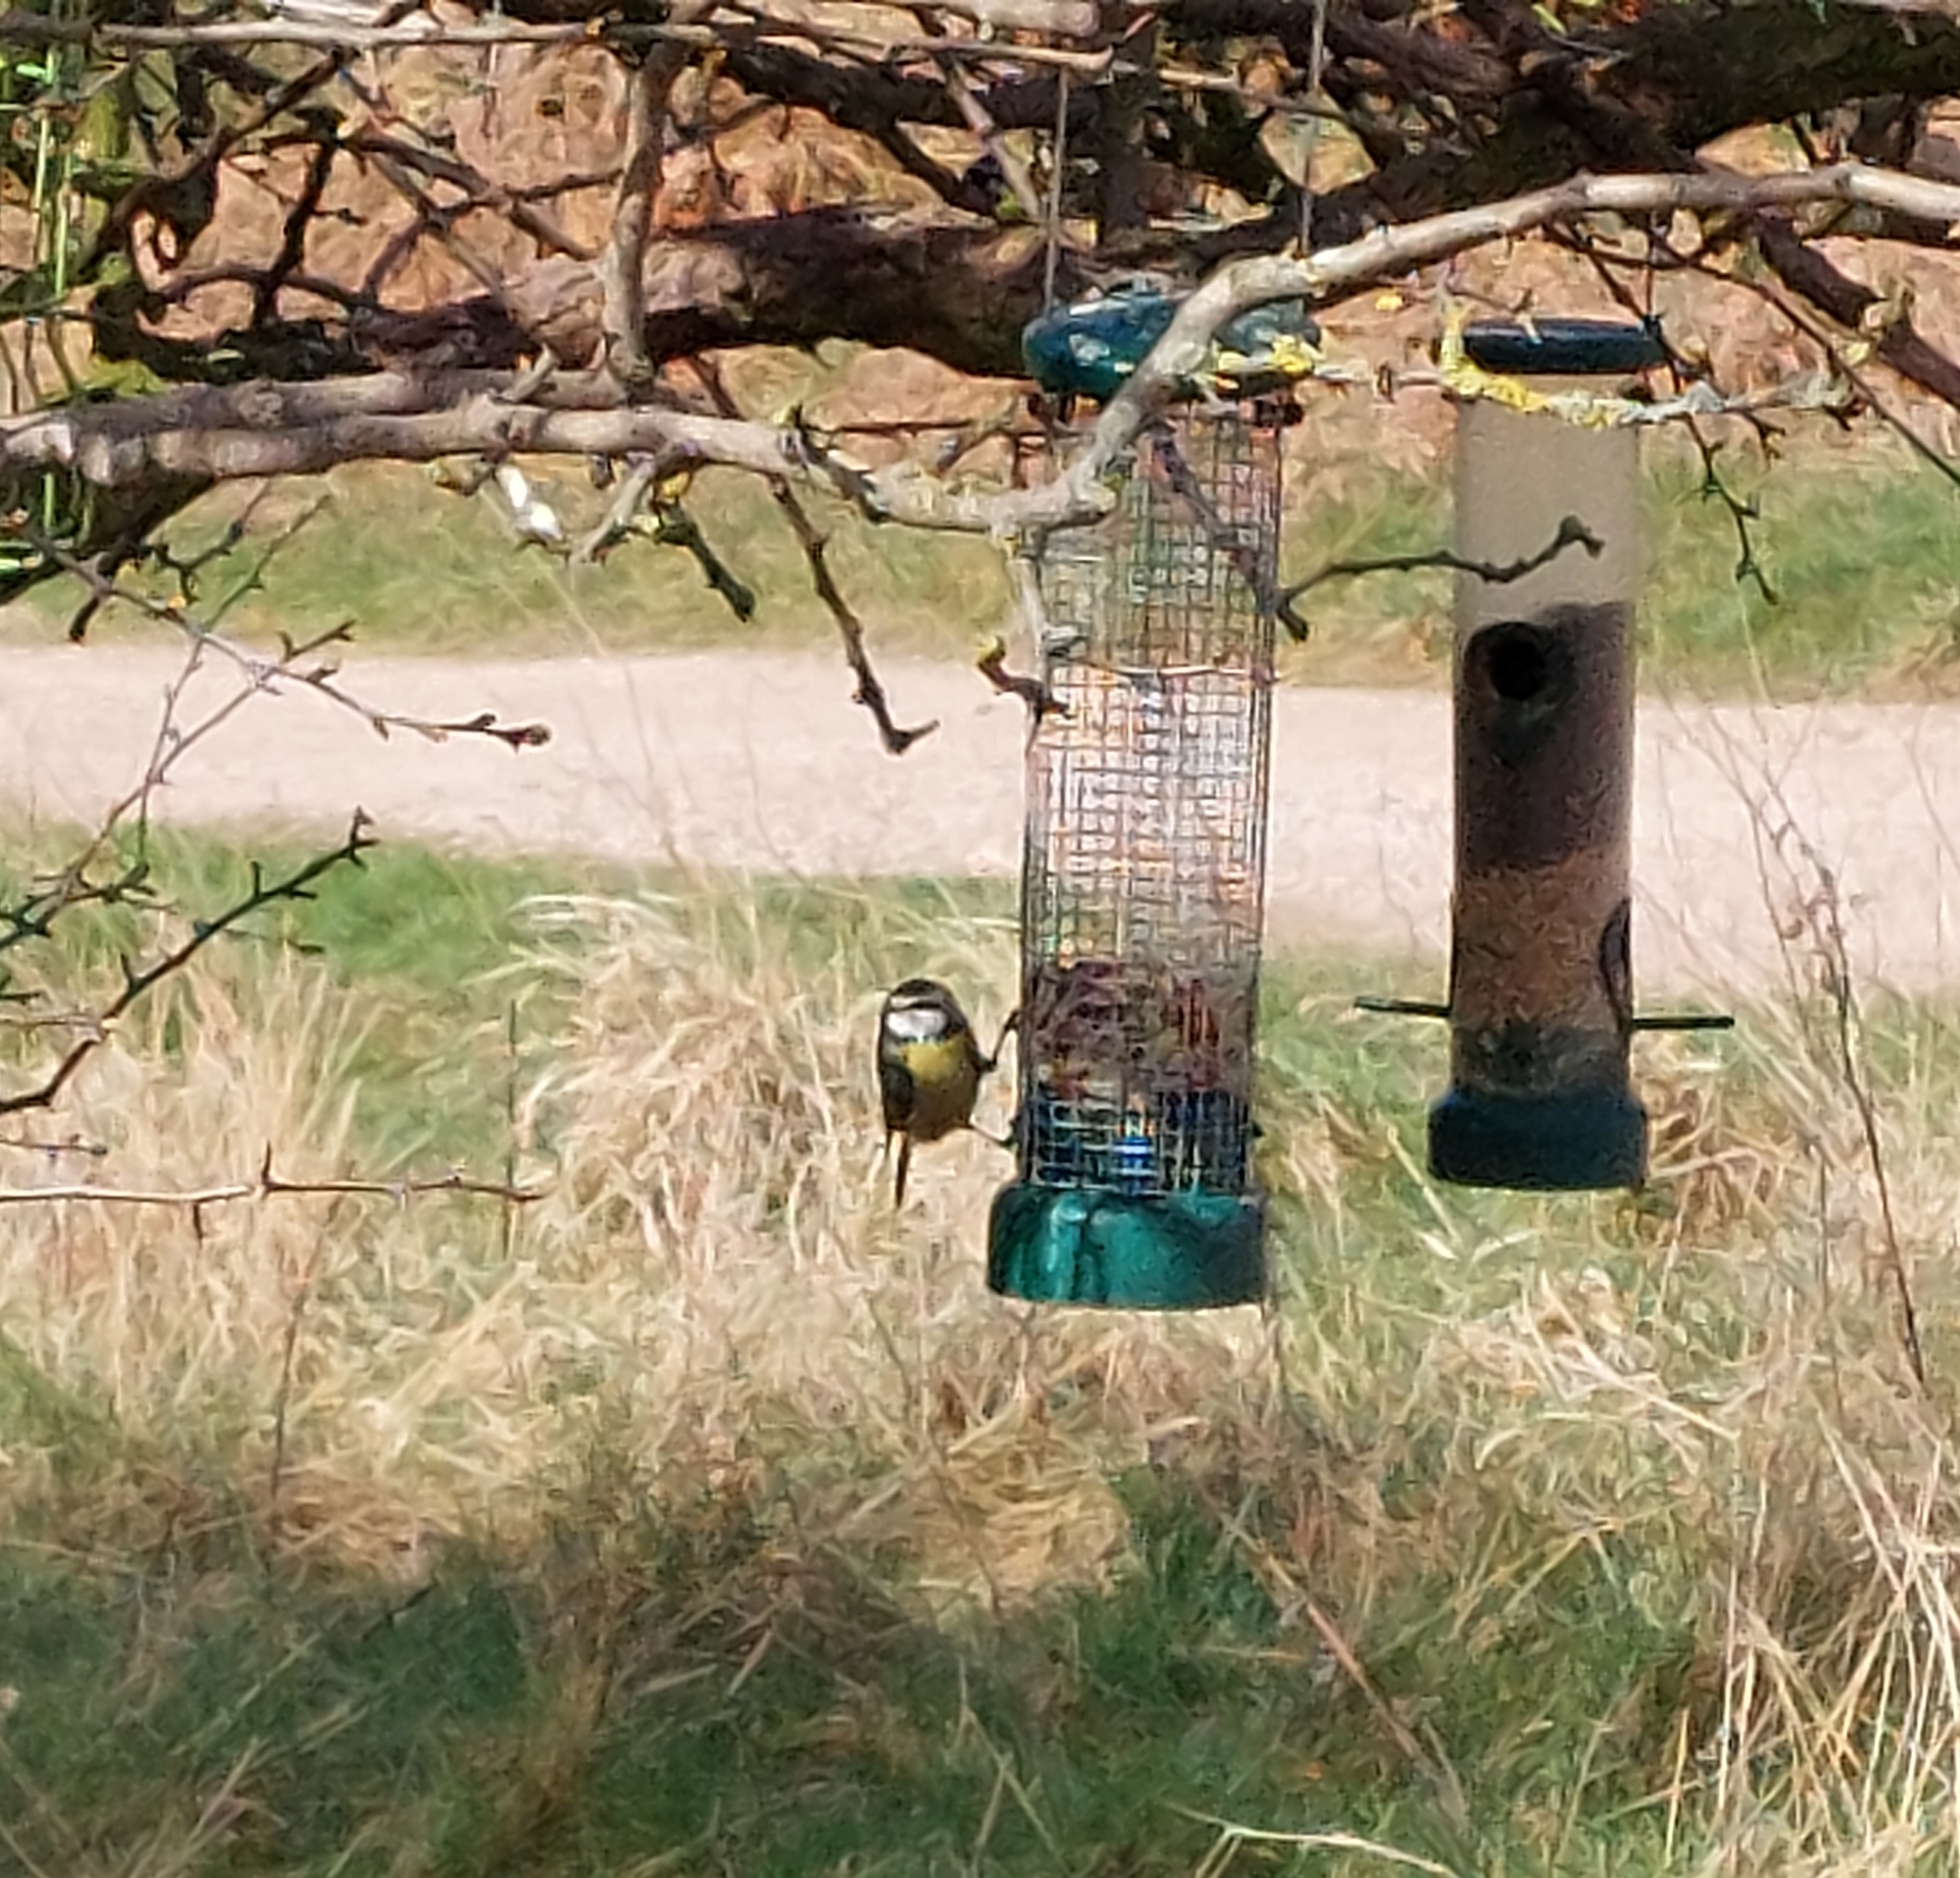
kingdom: Animalia
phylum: Chordata
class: Aves
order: Passeriformes
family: Paridae
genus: Cyanistes
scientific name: Cyanistes caeruleus
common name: Eurasian blue tit
